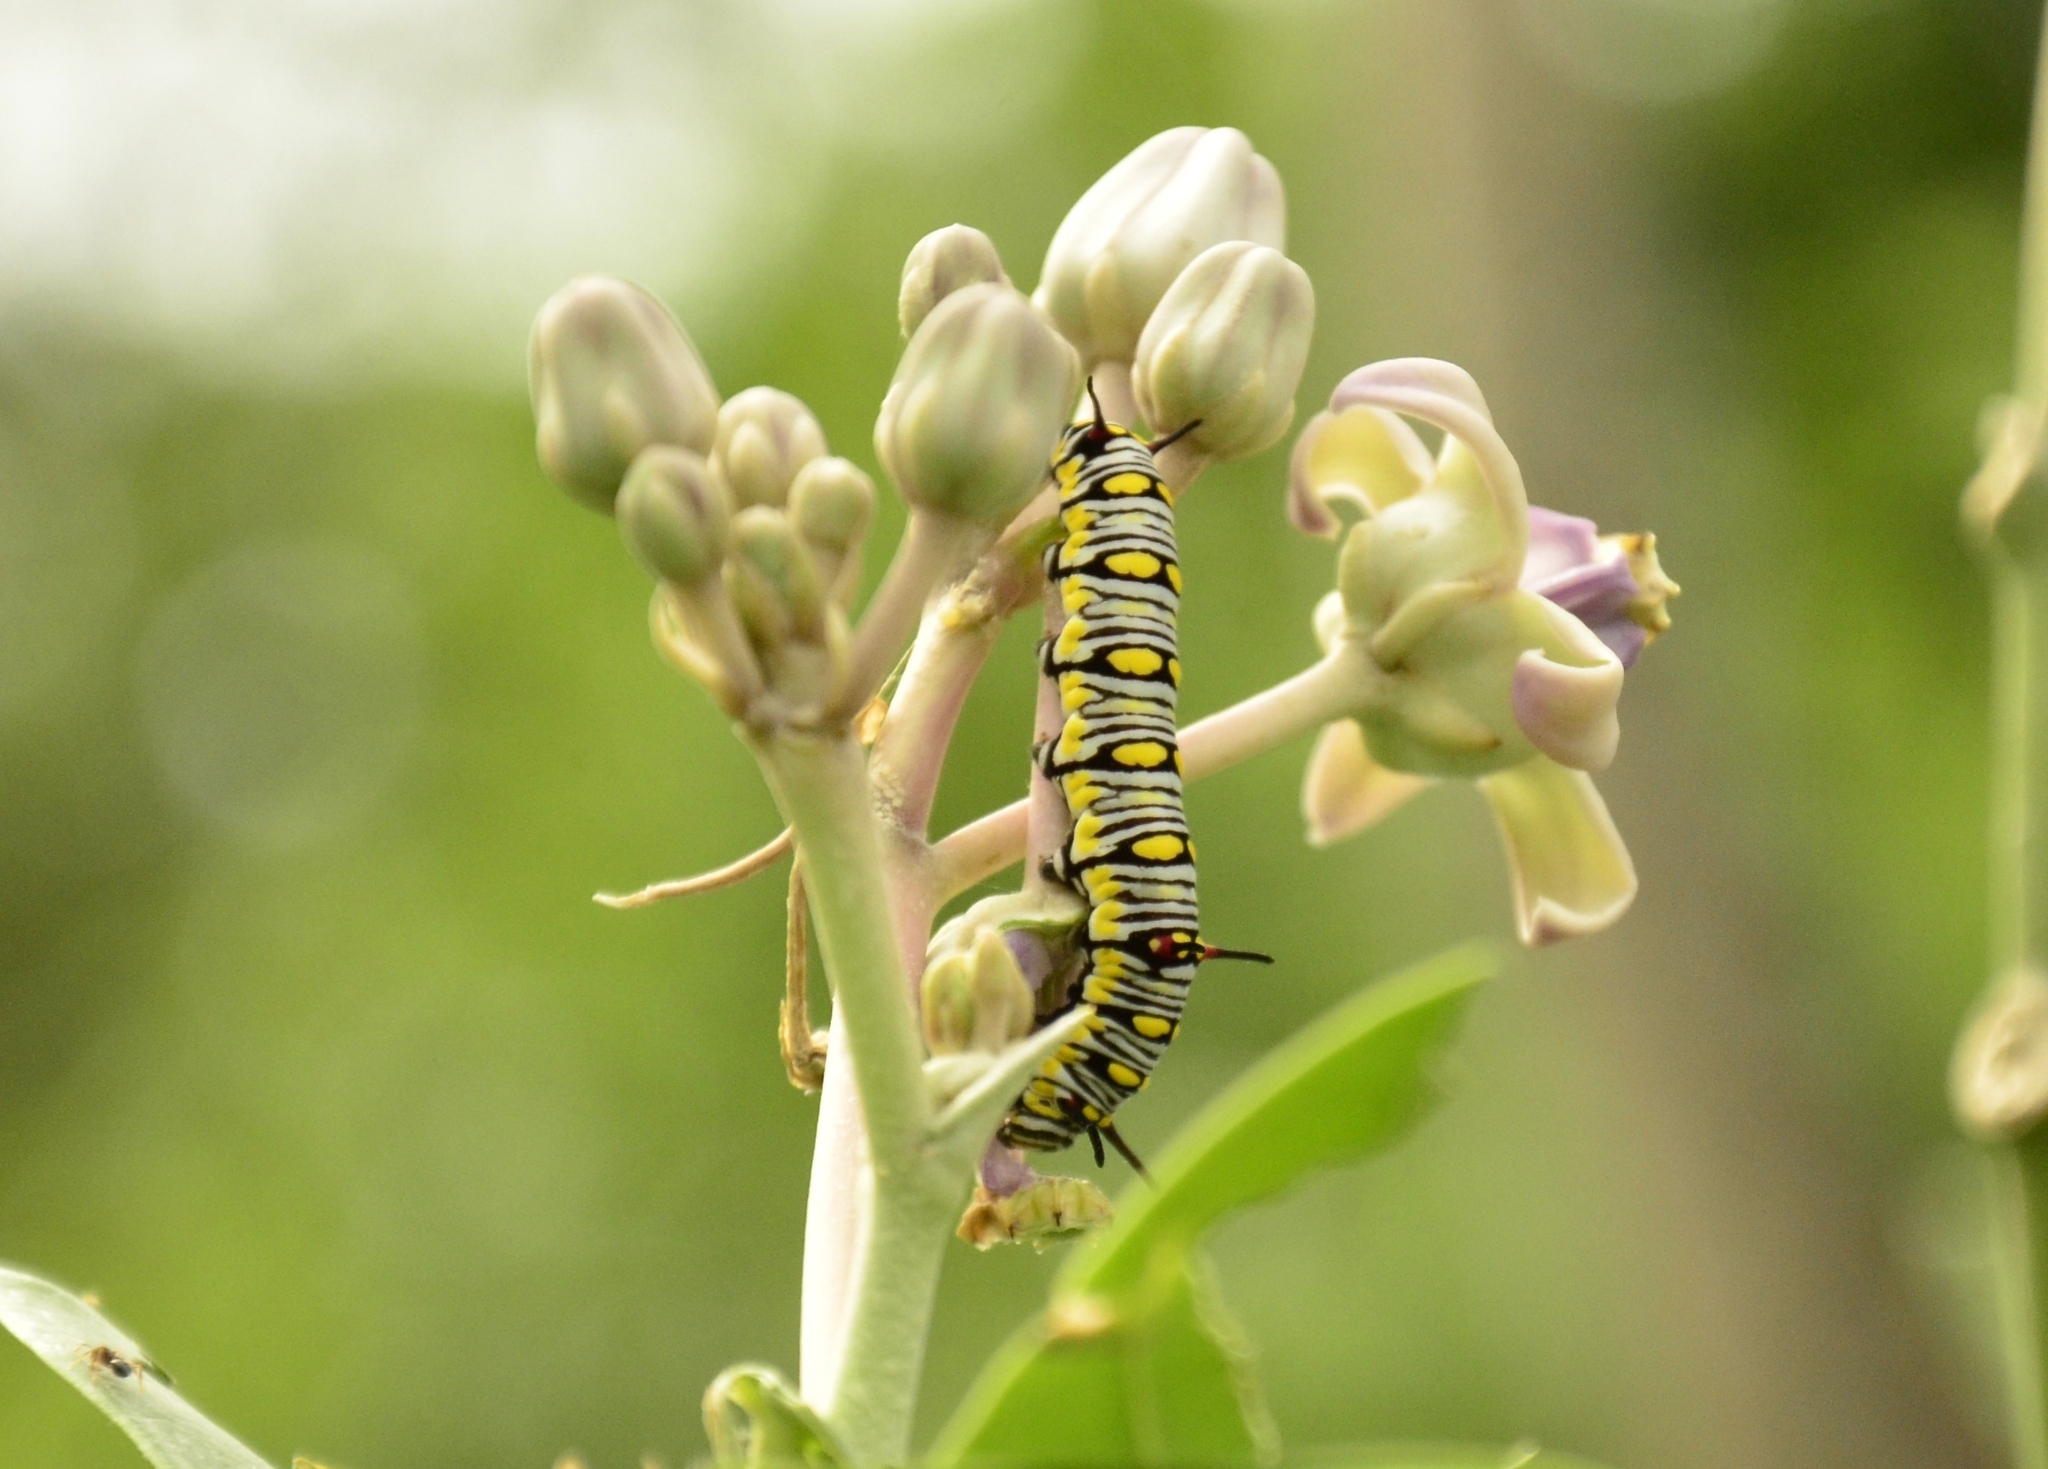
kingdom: Animalia
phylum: Arthropoda
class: Insecta
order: Lepidoptera
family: Nymphalidae
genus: Danaus
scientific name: Danaus chrysippus
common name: Plain tiger
